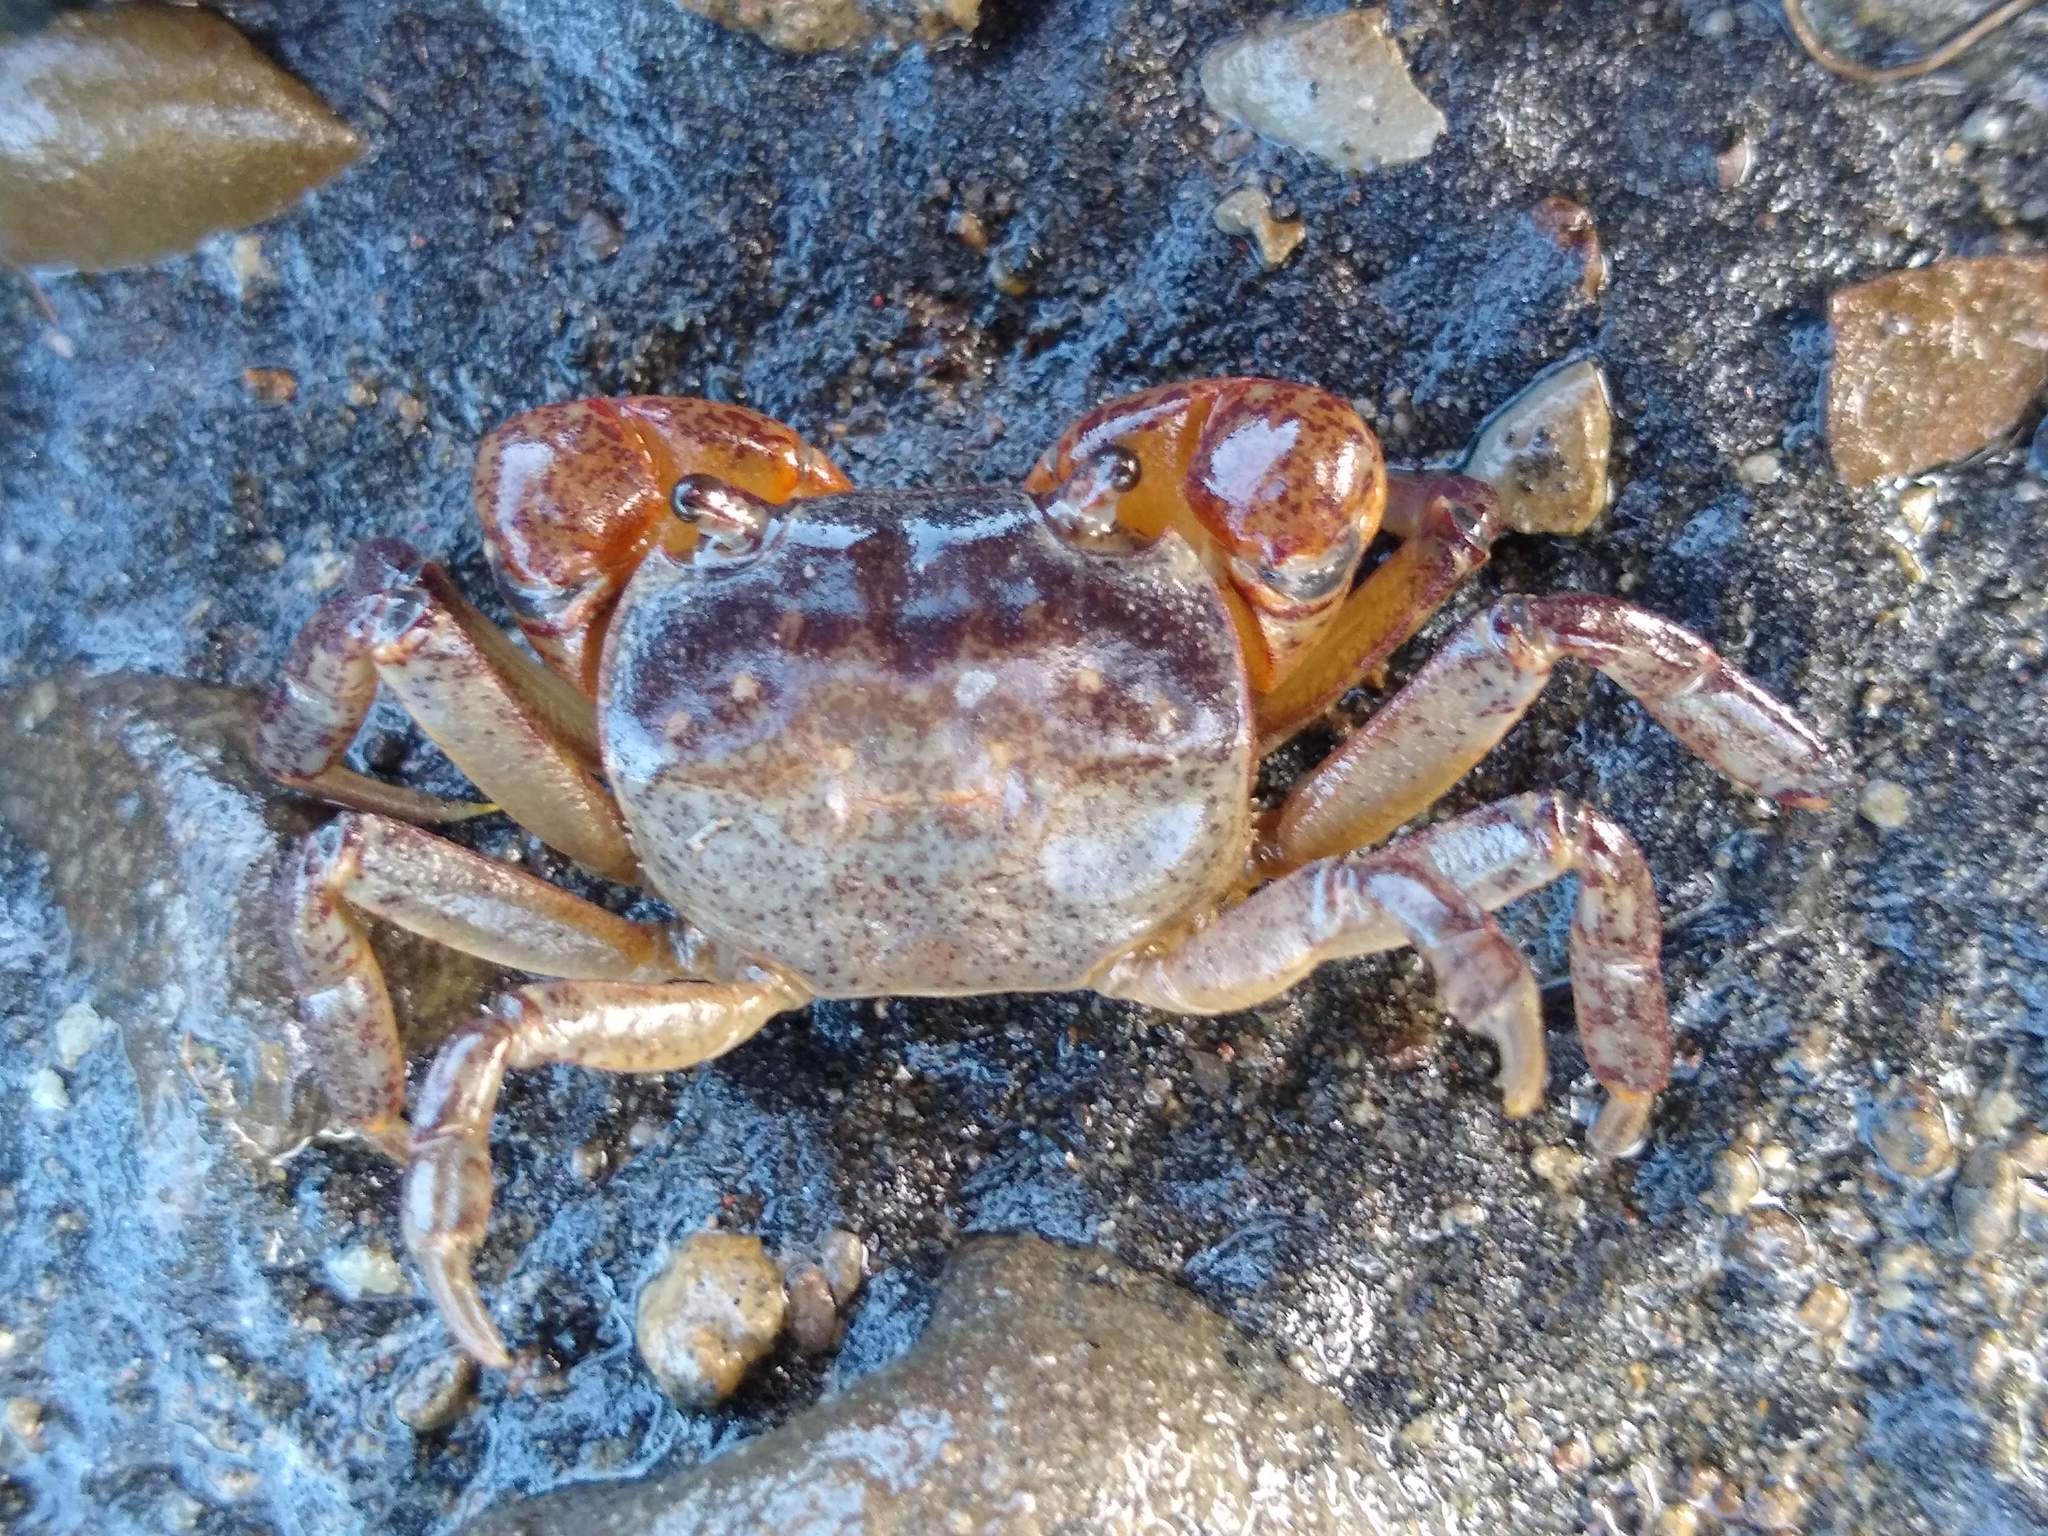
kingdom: Animalia
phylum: Arthropoda
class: Malacostraca
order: Decapoda
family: Varunidae
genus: Cyclograpsus
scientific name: Cyclograpsus lavauxi
